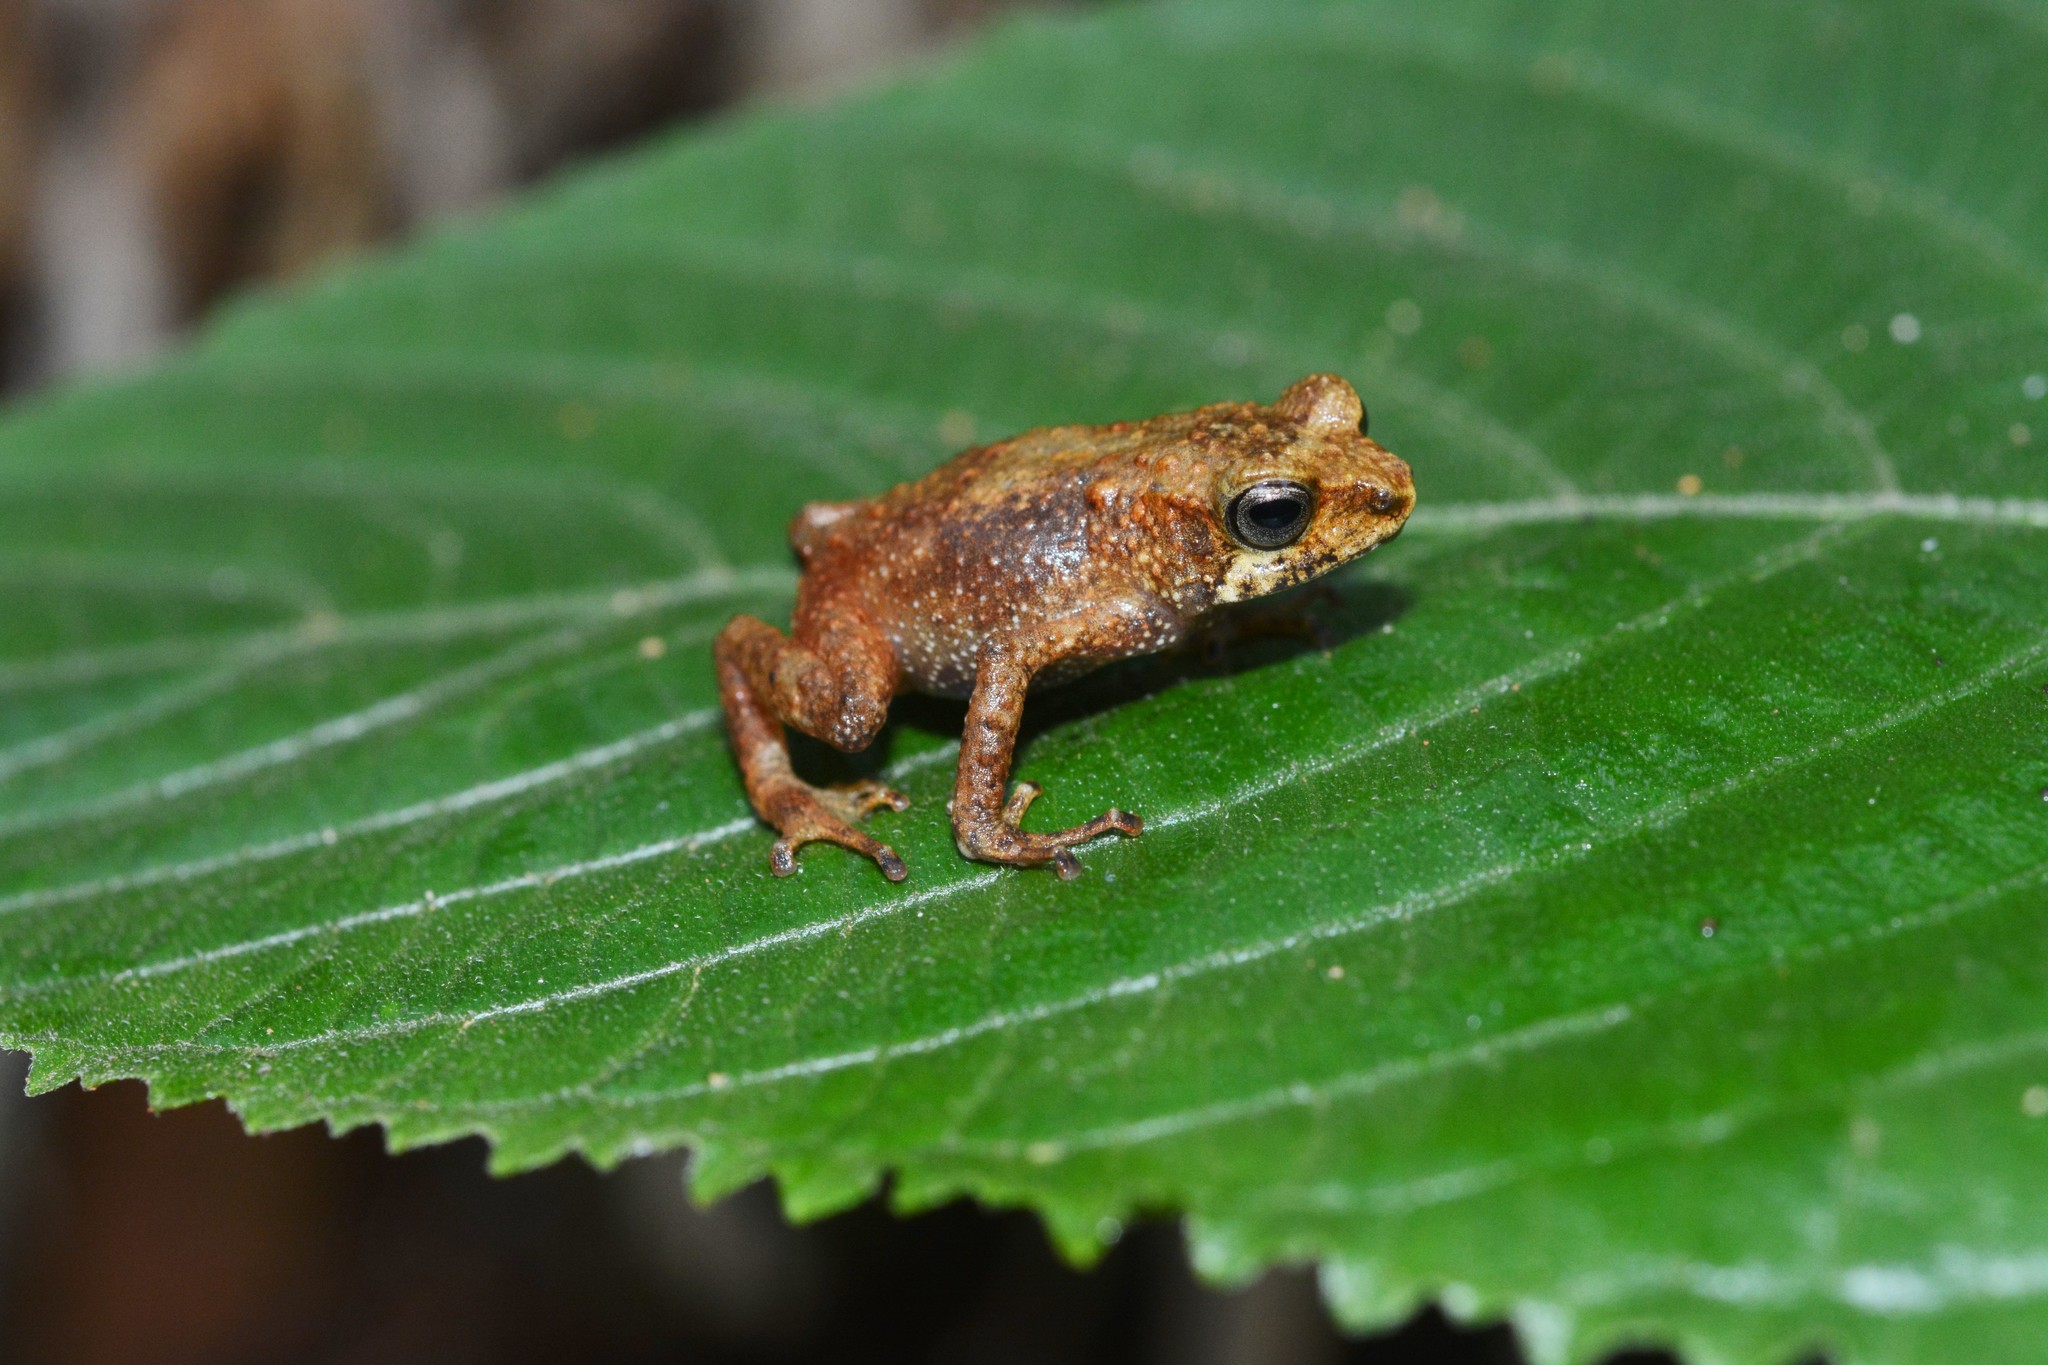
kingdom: Animalia
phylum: Chordata
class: Amphibia
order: Anura
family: Bufonidae
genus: Nectophrynoides
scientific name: Nectophrynoides tornieri
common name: Tornier's forest toad
